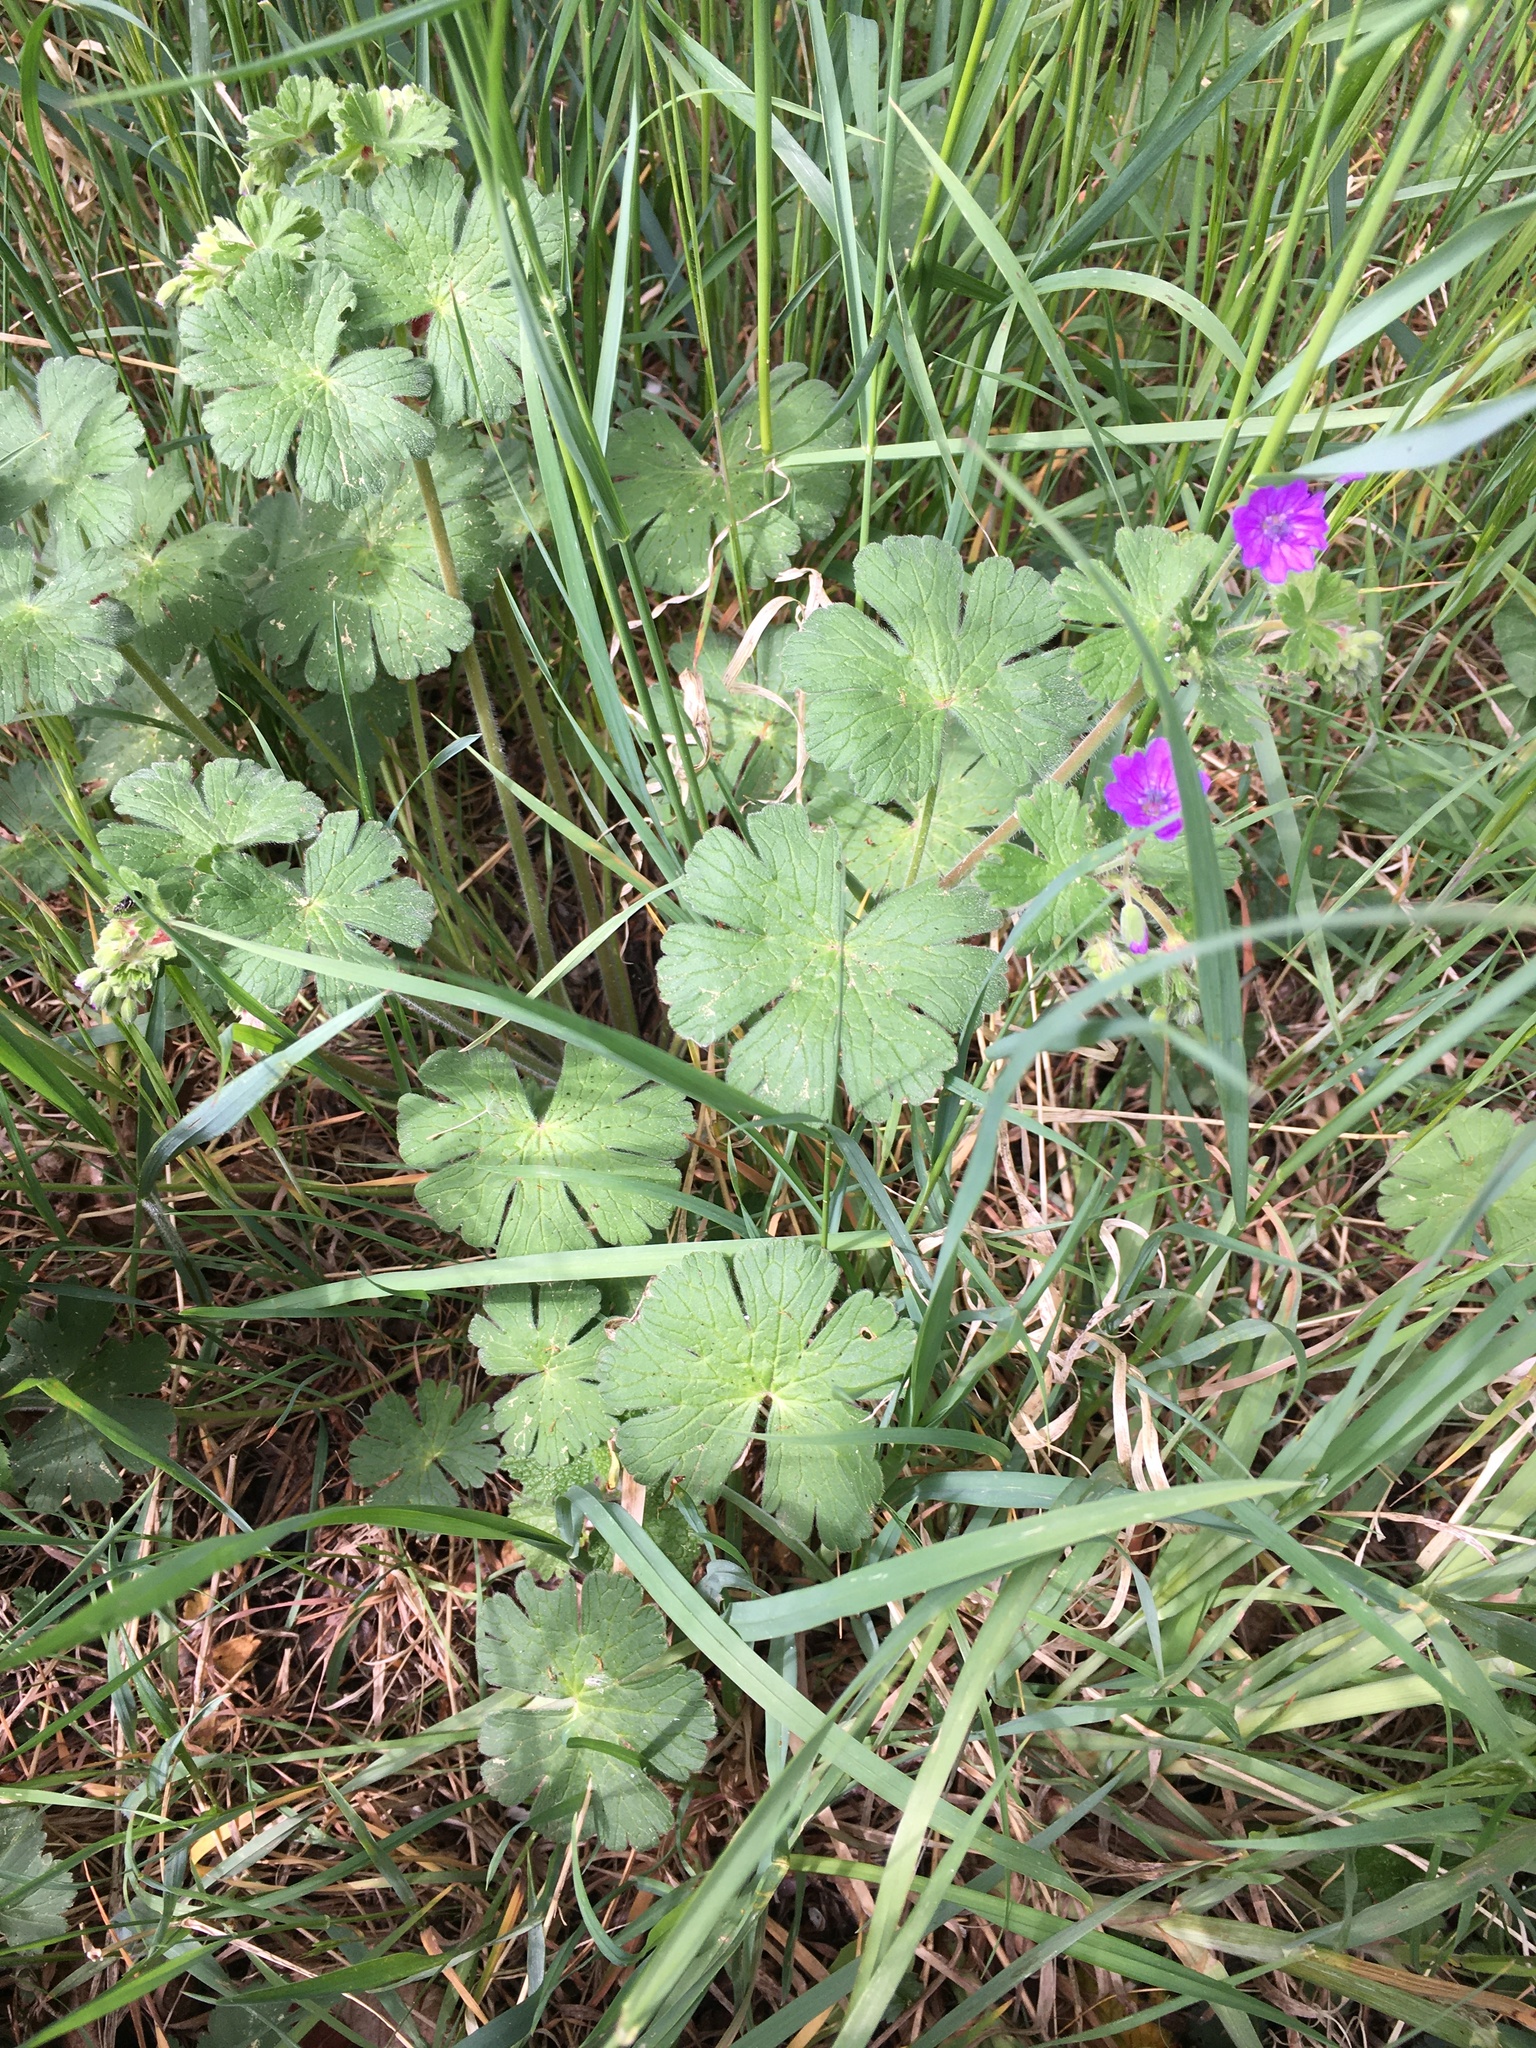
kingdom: Plantae
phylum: Tracheophyta
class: Magnoliopsida
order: Geraniales
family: Geraniaceae
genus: Geranium
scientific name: Geranium pyrenaicum
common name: Hedgerow crane's-bill
